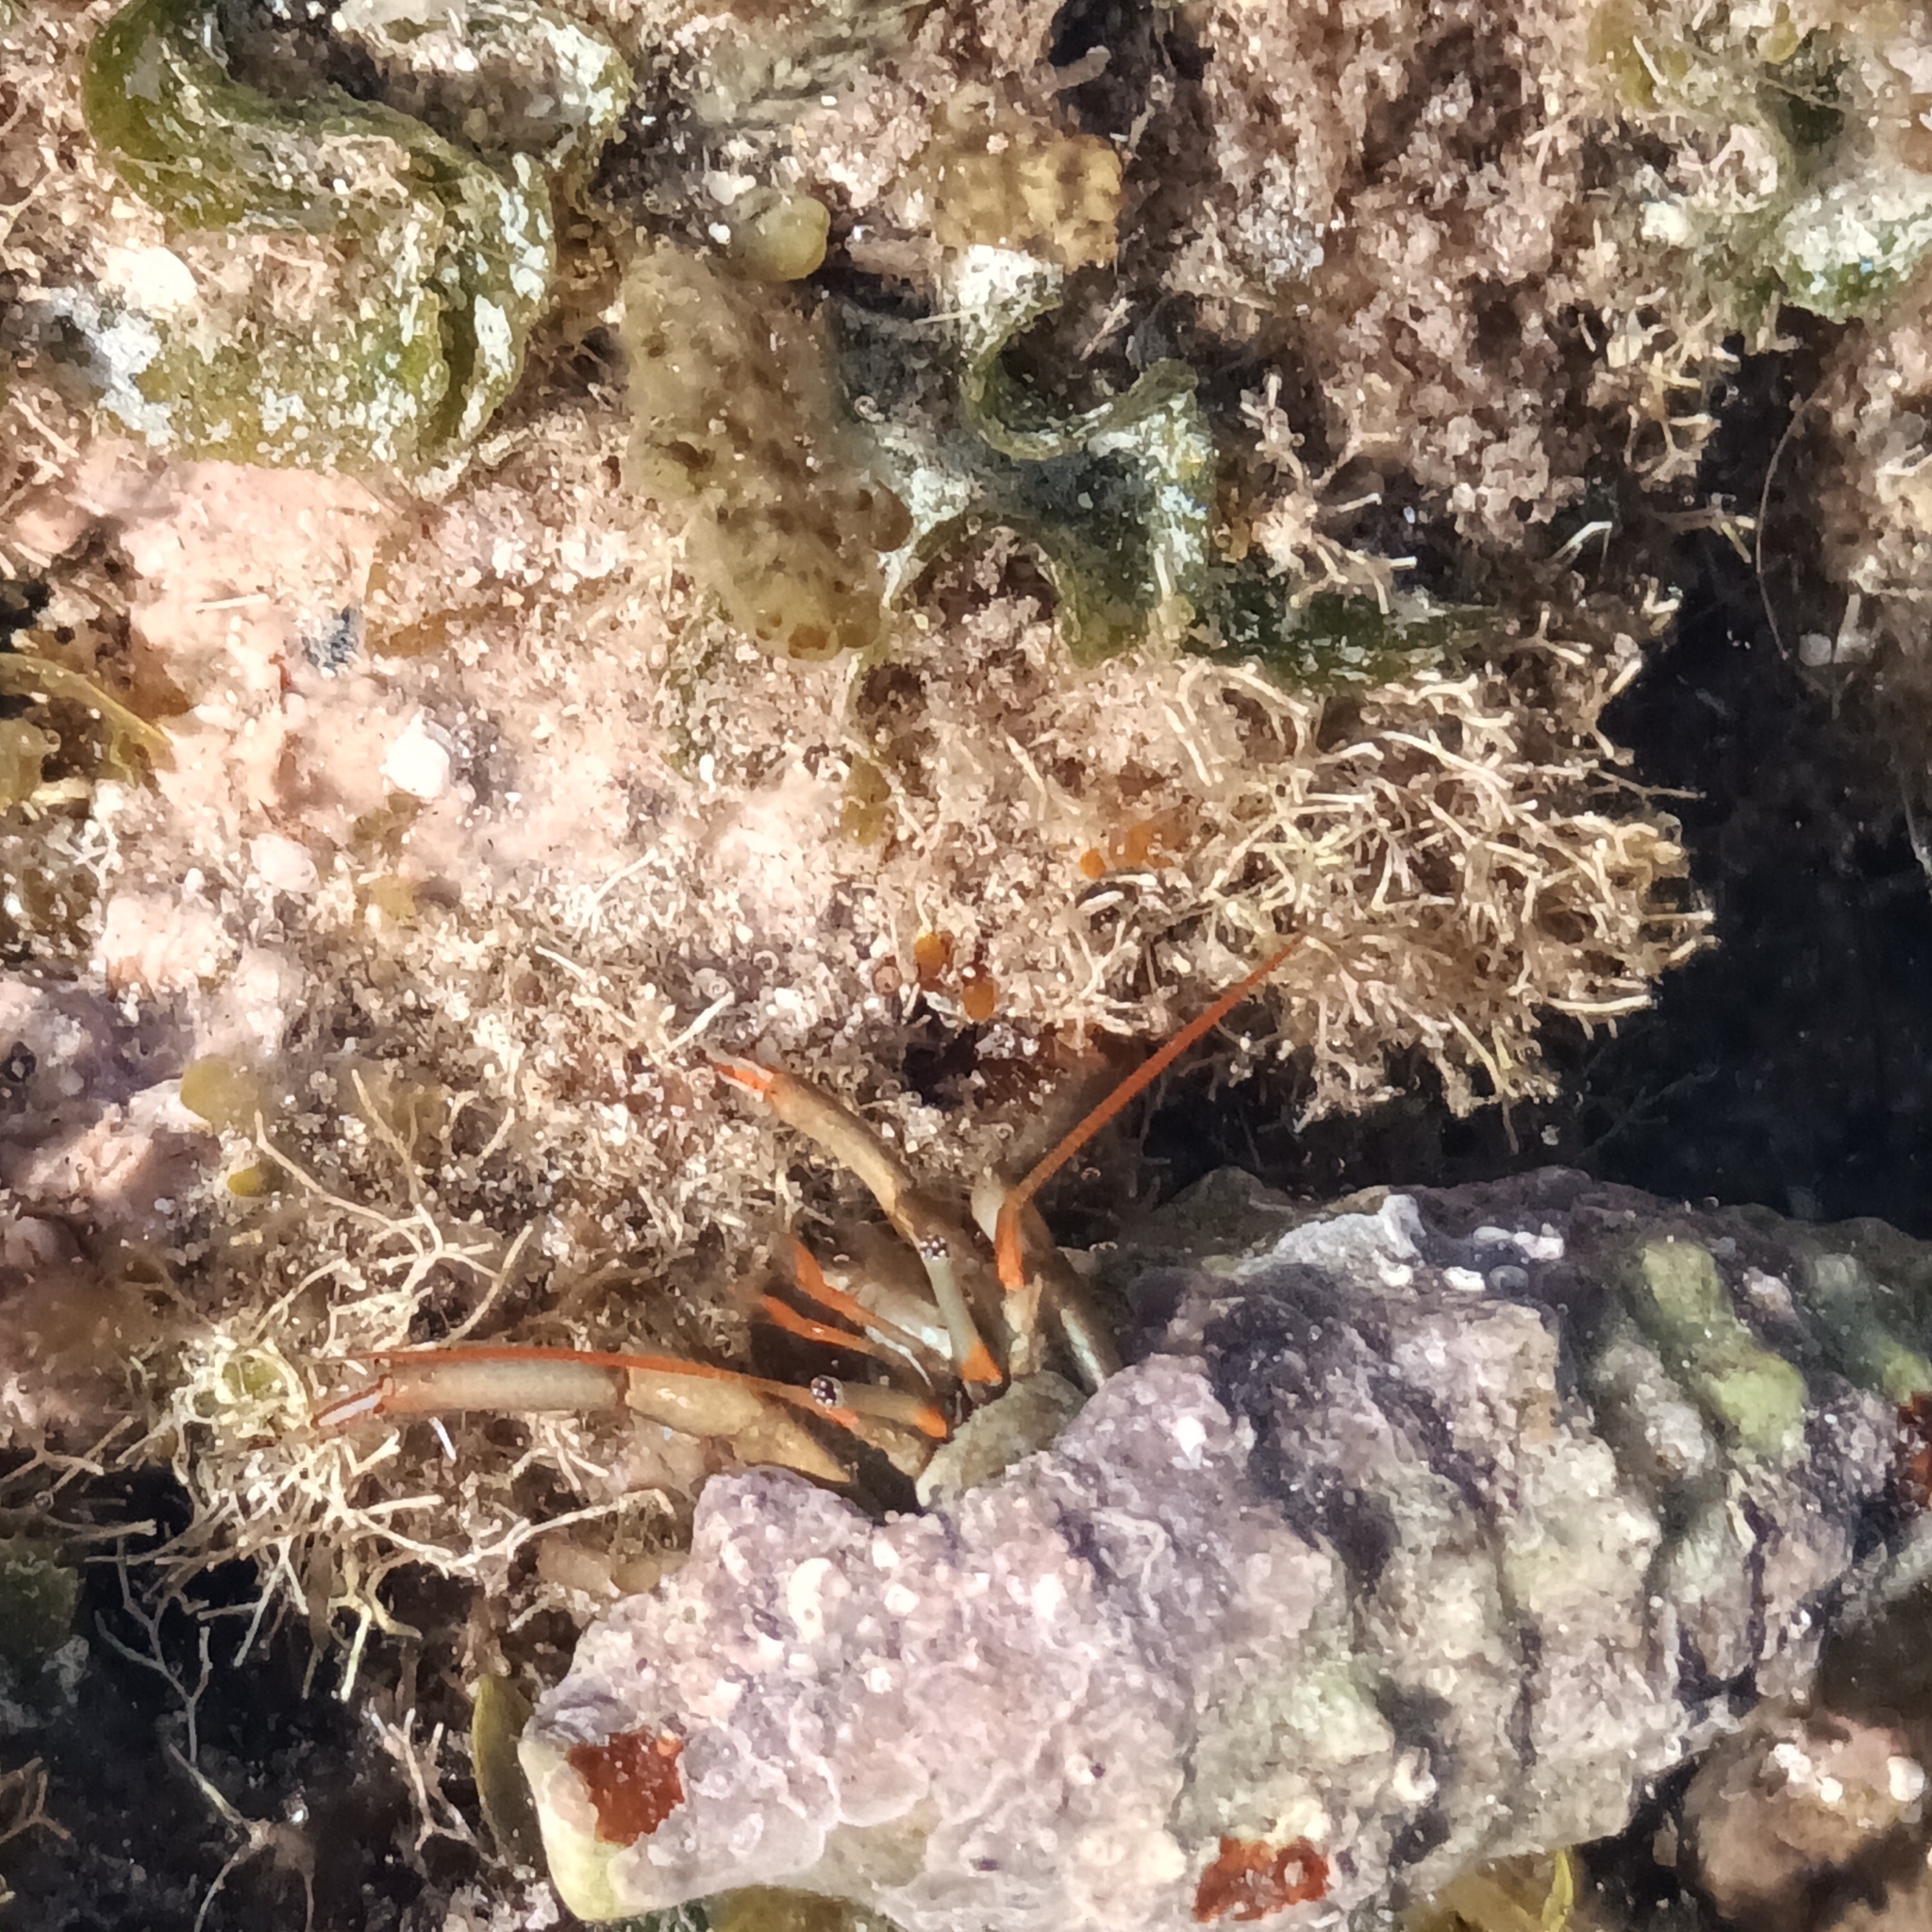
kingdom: Animalia
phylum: Arthropoda
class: Malacostraca
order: Decapoda
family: Diogenidae
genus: Clibanarius
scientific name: Clibanarius erythropus
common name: Hermit crab
